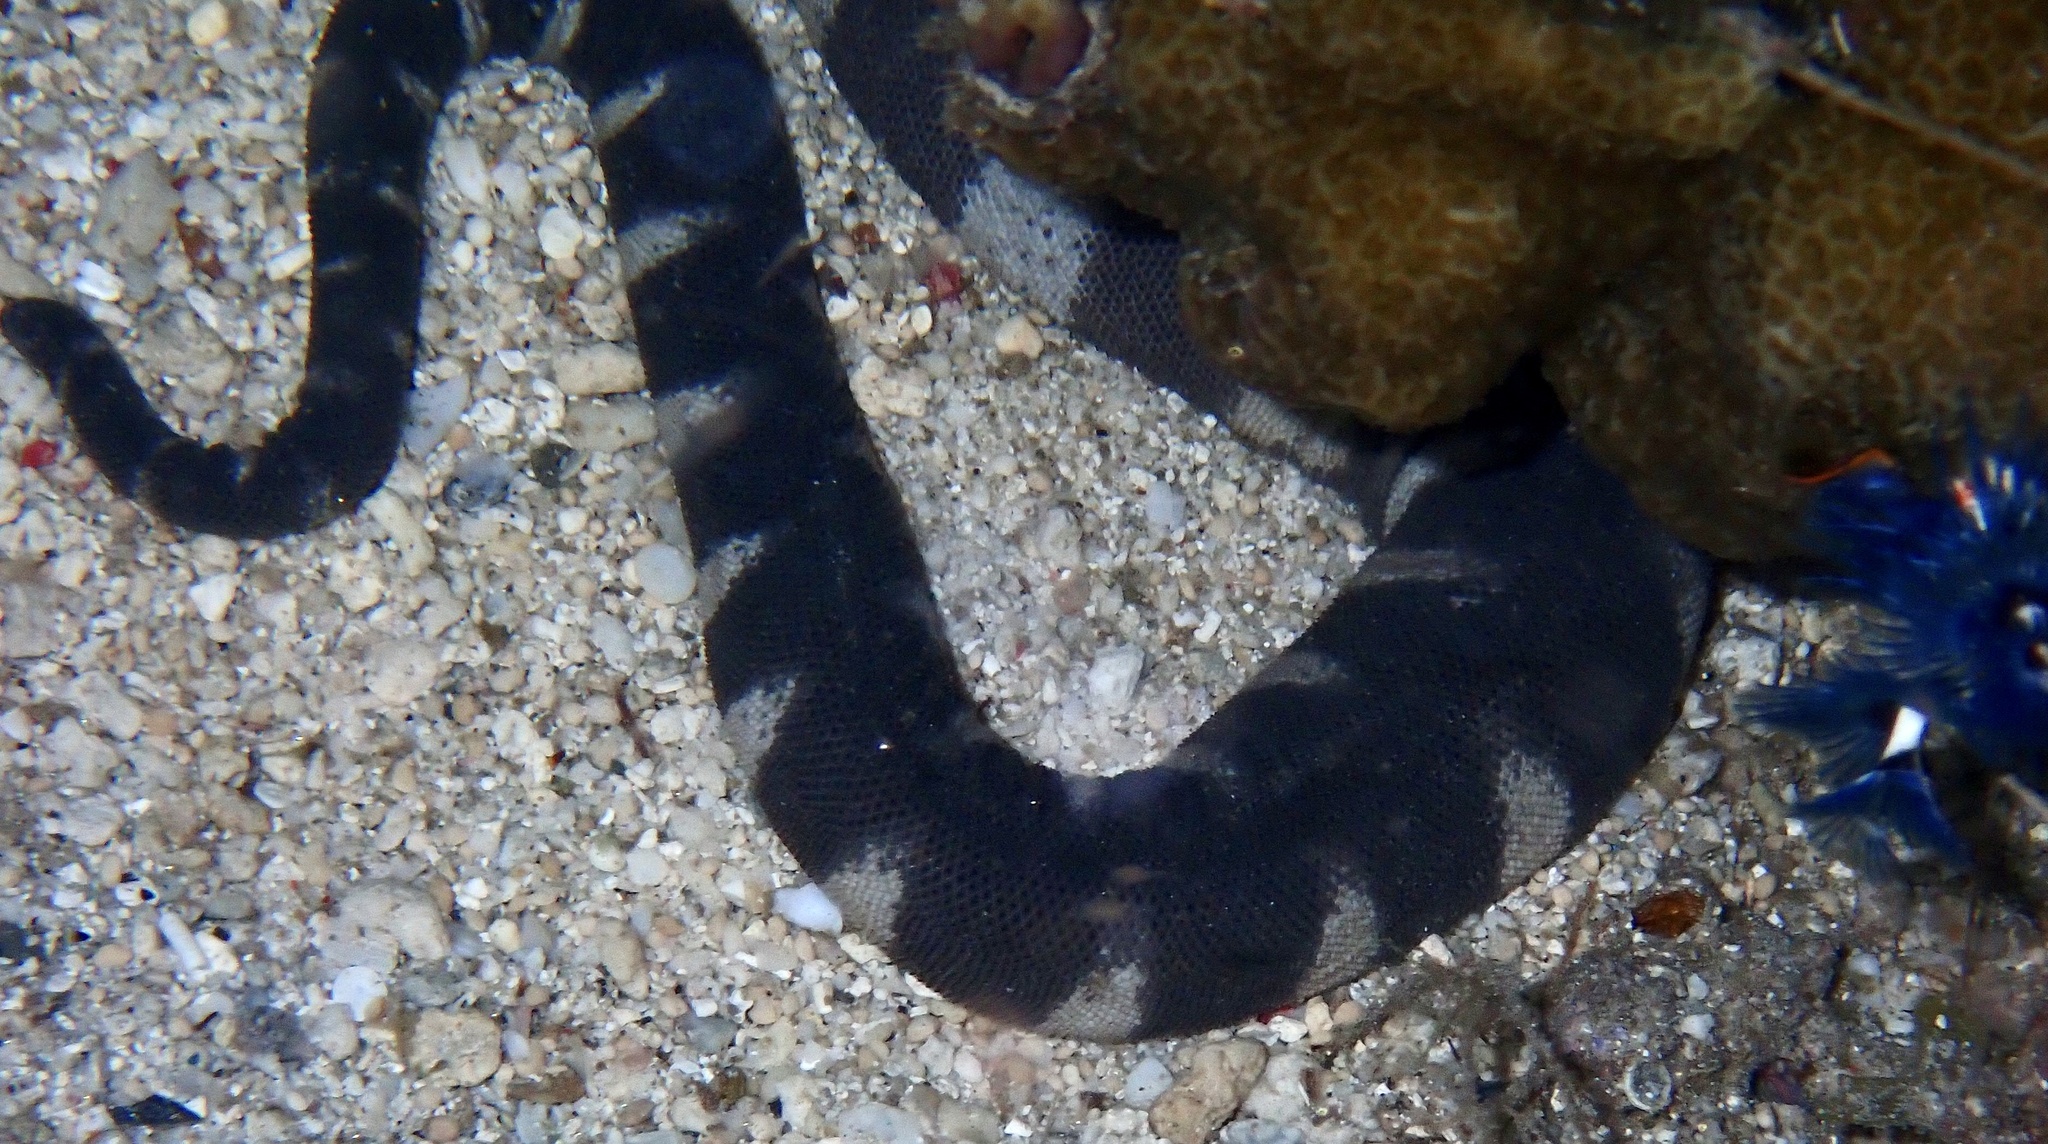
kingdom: Animalia
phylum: Chordata
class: Squamata
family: Acrochordidae
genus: Acrochordus
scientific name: Acrochordus granulatus
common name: Little filesnake
